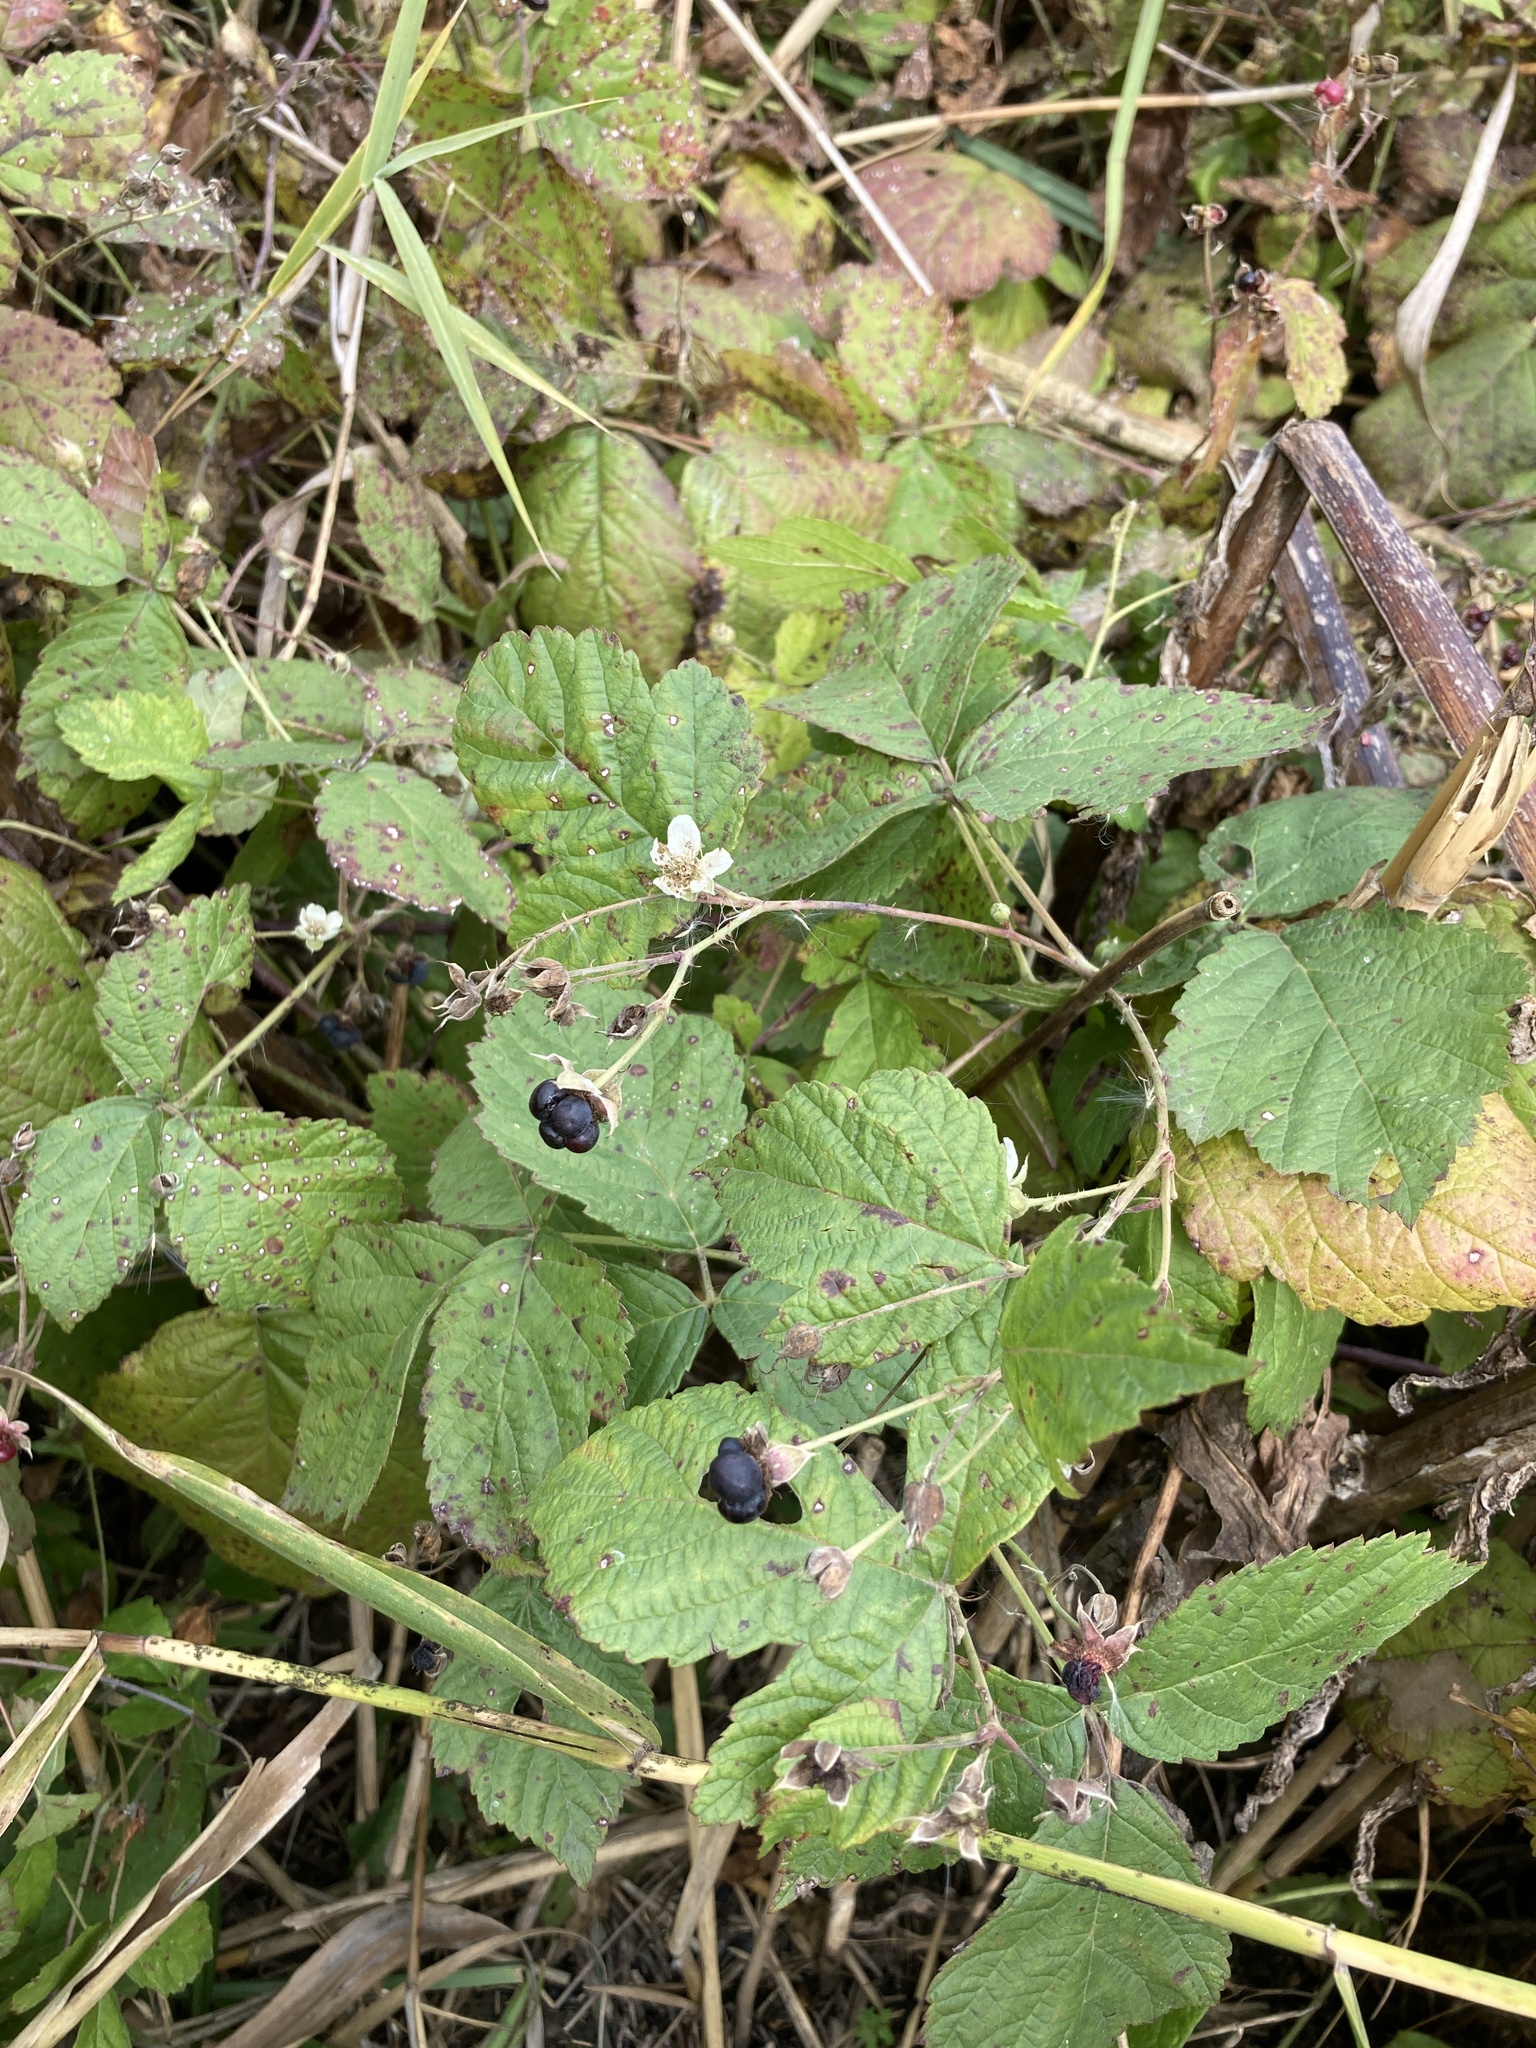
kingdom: Plantae
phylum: Tracheophyta
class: Magnoliopsida
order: Rosales
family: Rosaceae
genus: Rubus
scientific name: Rubus caesius
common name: Dewberry
